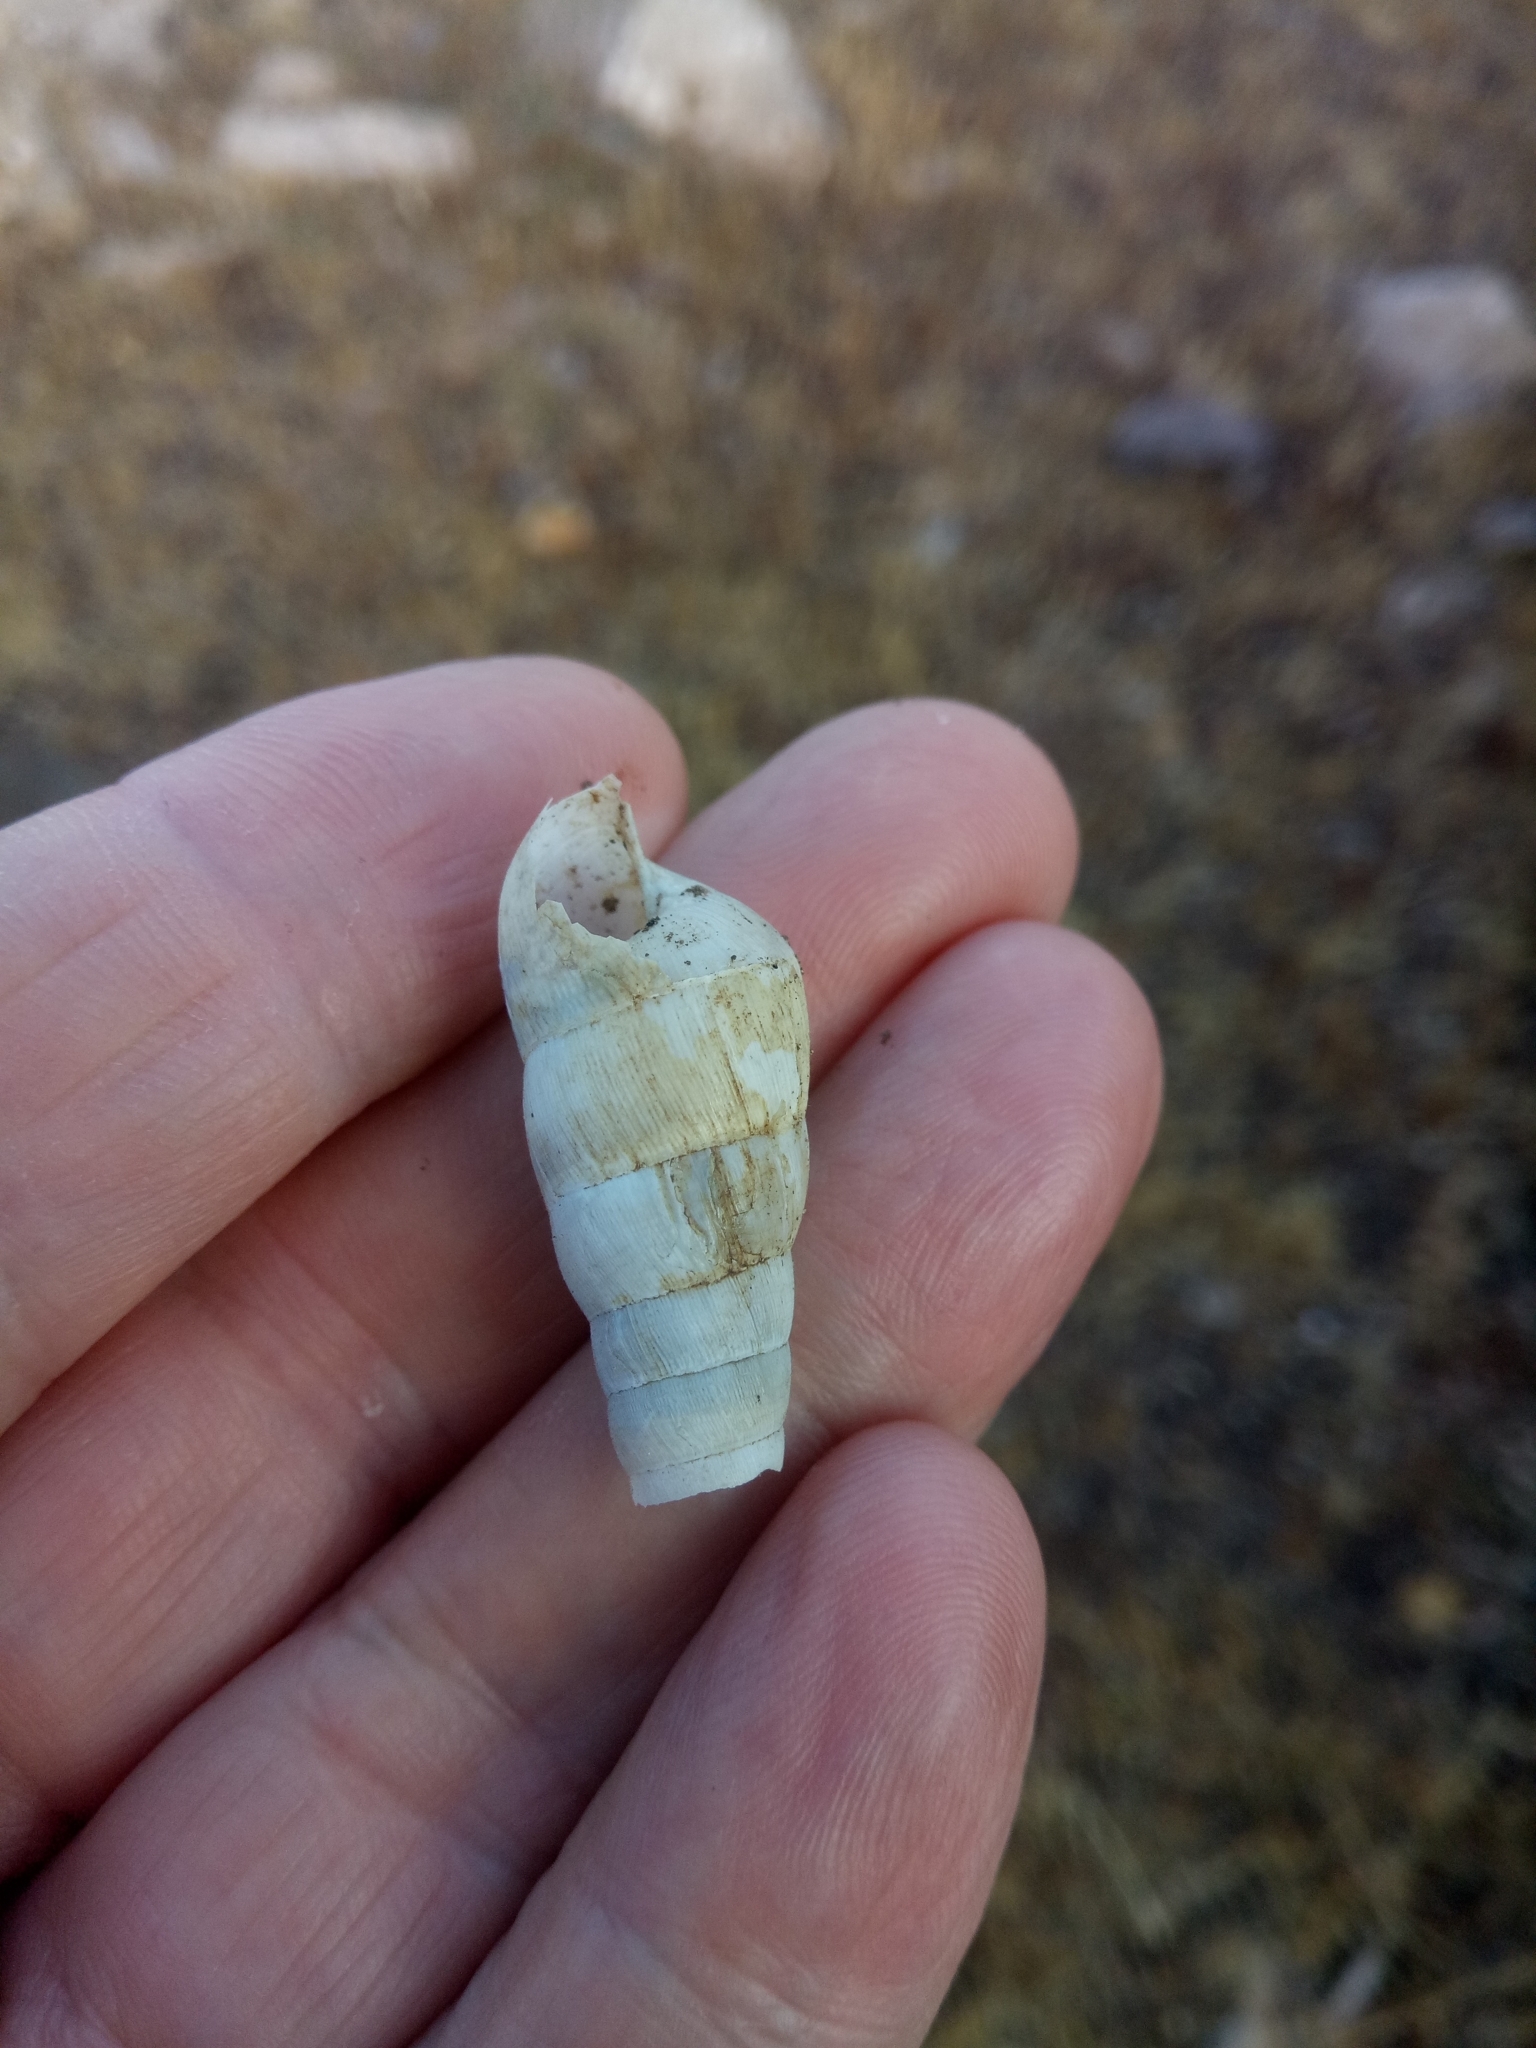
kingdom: Animalia
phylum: Mollusca
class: Gastropoda
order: Stylommatophora
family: Achatinidae
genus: Rumina
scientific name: Rumina decollata
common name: Decollate snail
